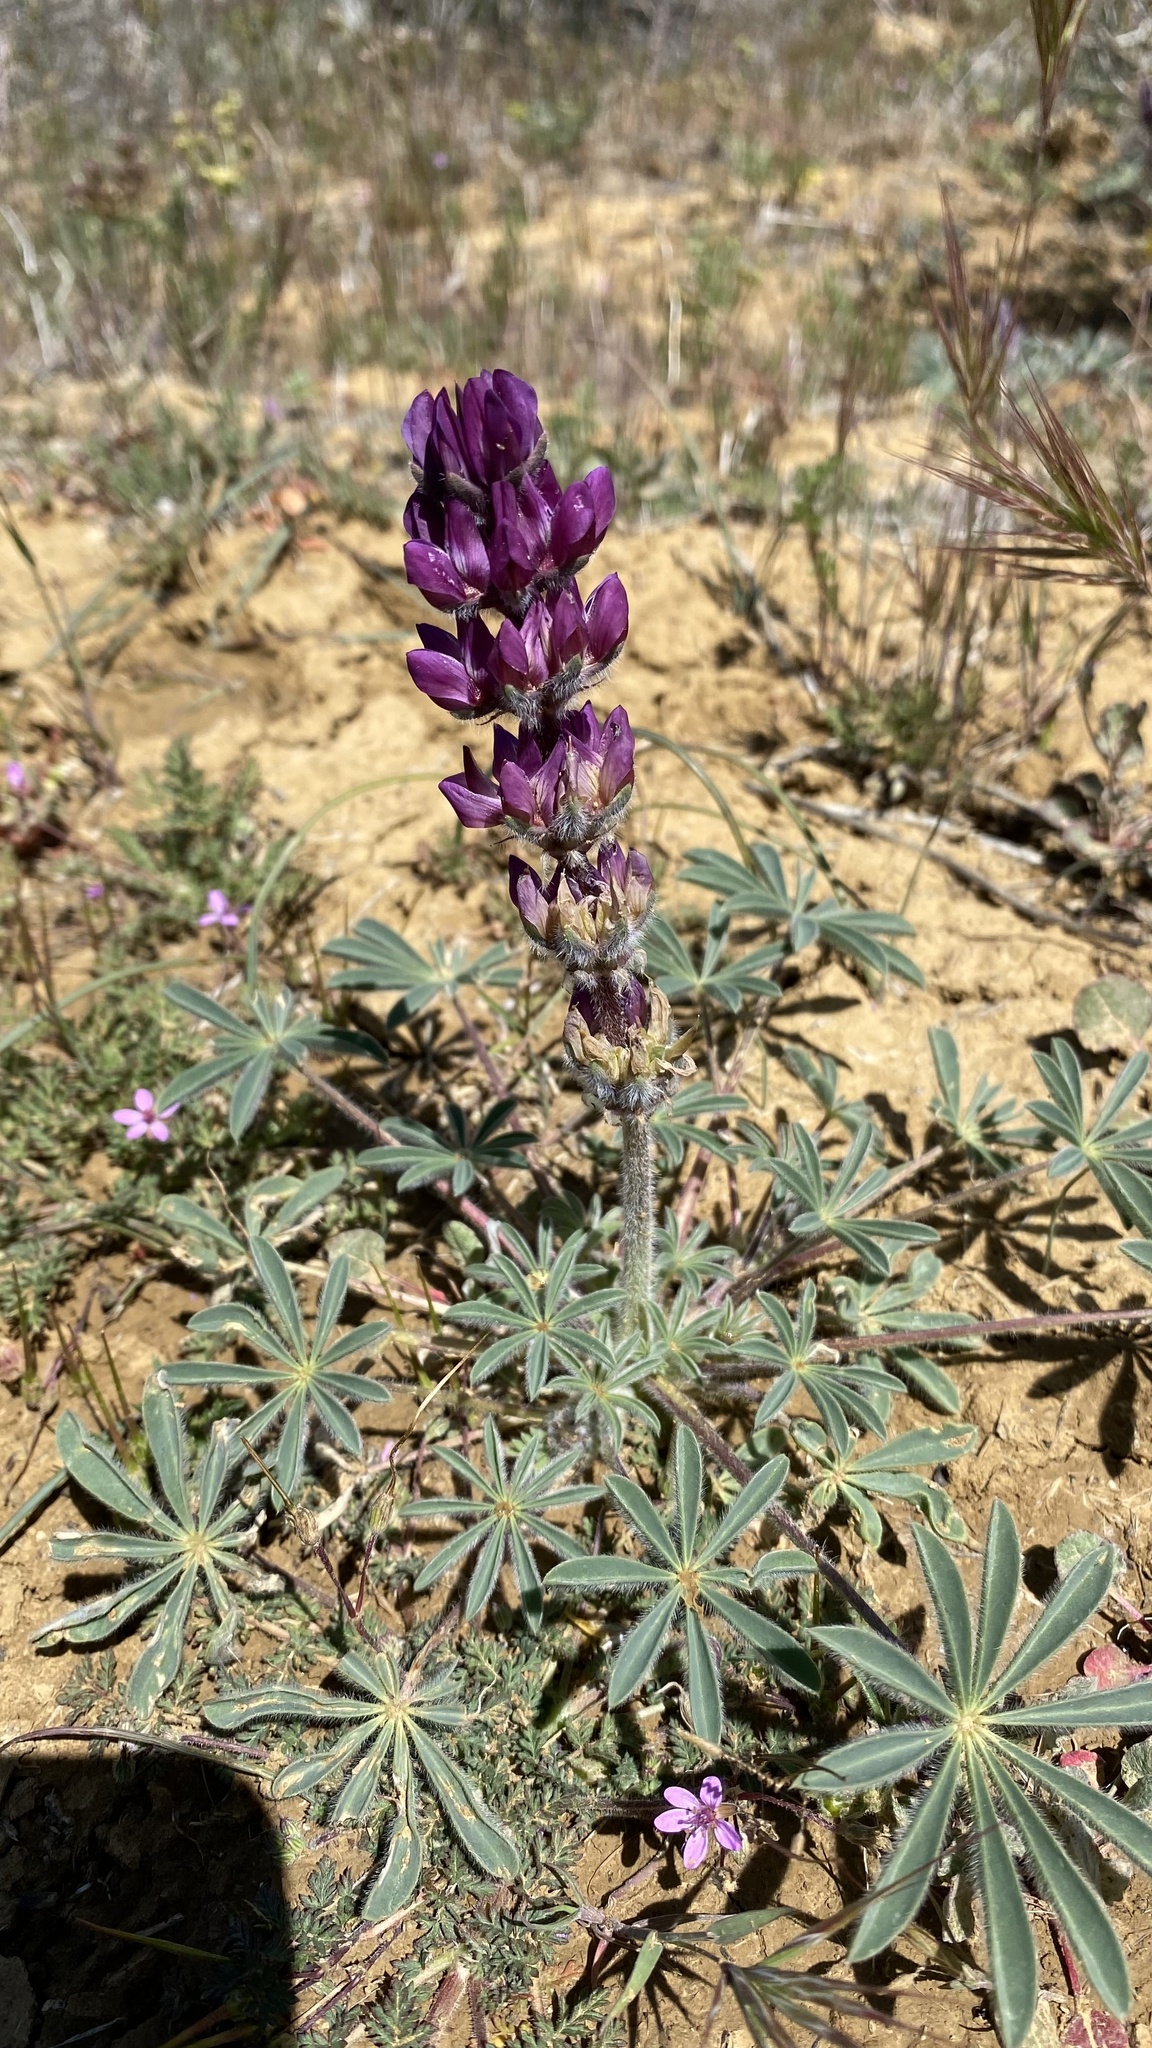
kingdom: Plantae
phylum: Tracheophyta
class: Magnoliopsida
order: Fabales
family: Fabaceae
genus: Lupinus
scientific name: Lupinus microcarpus
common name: Chick lupine
